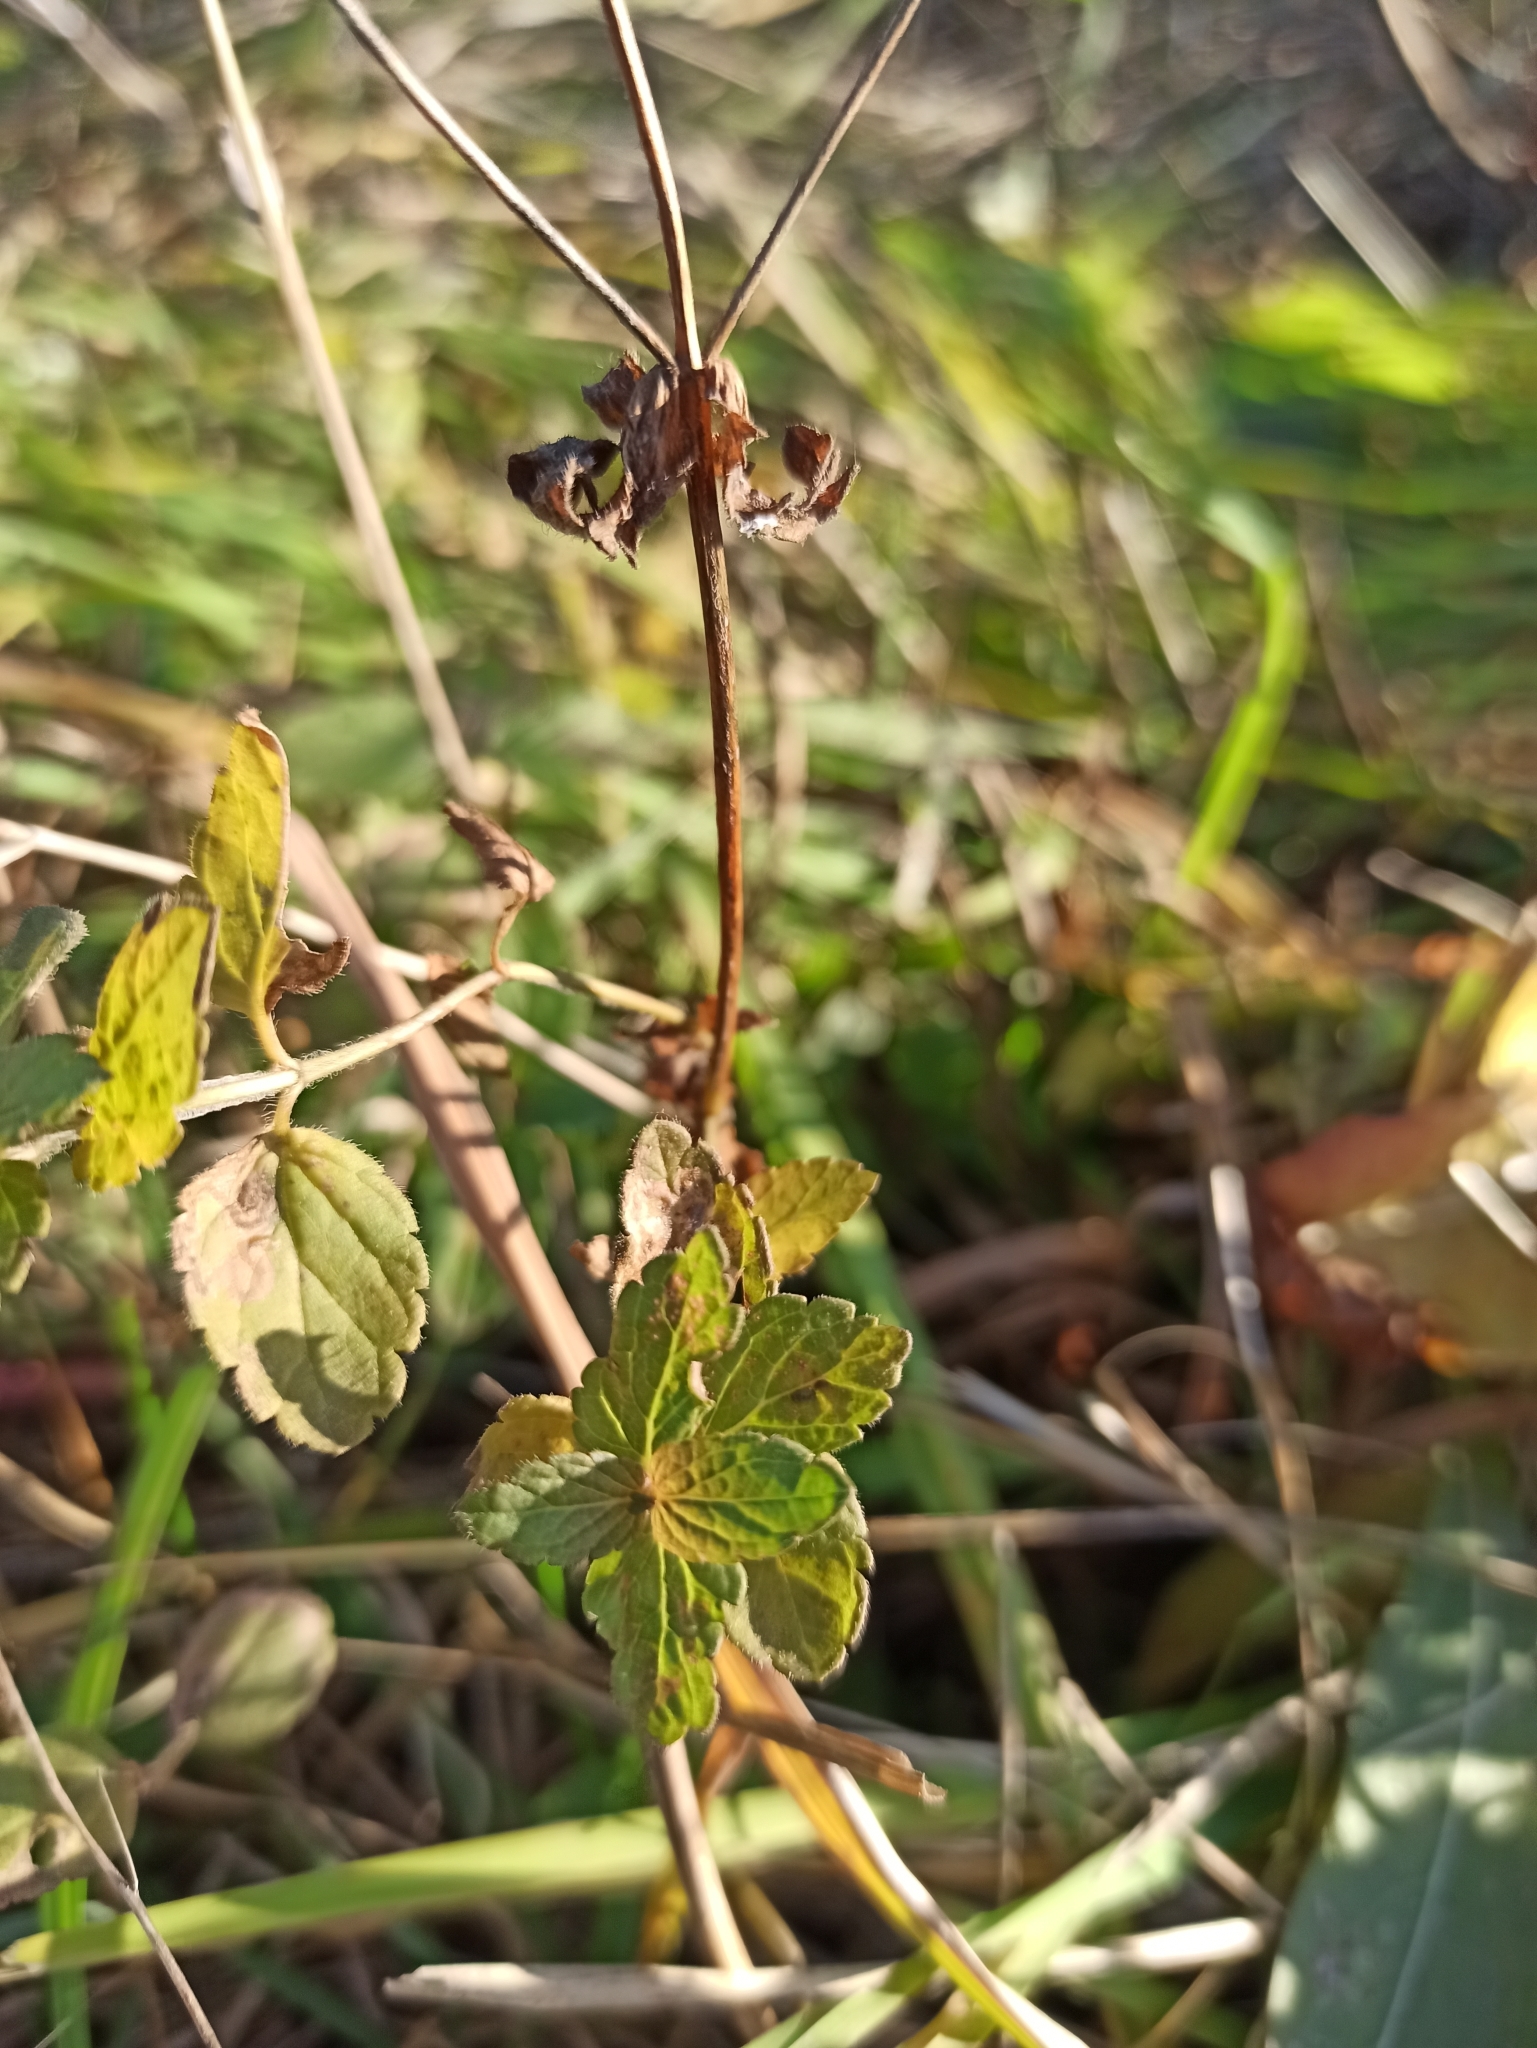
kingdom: Plantae
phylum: Tracheophyta
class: Magnoliopsida
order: Lamiales
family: Plantaginaceae
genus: Veronica
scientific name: Veronica chamaedrys
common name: Germander speedwell
